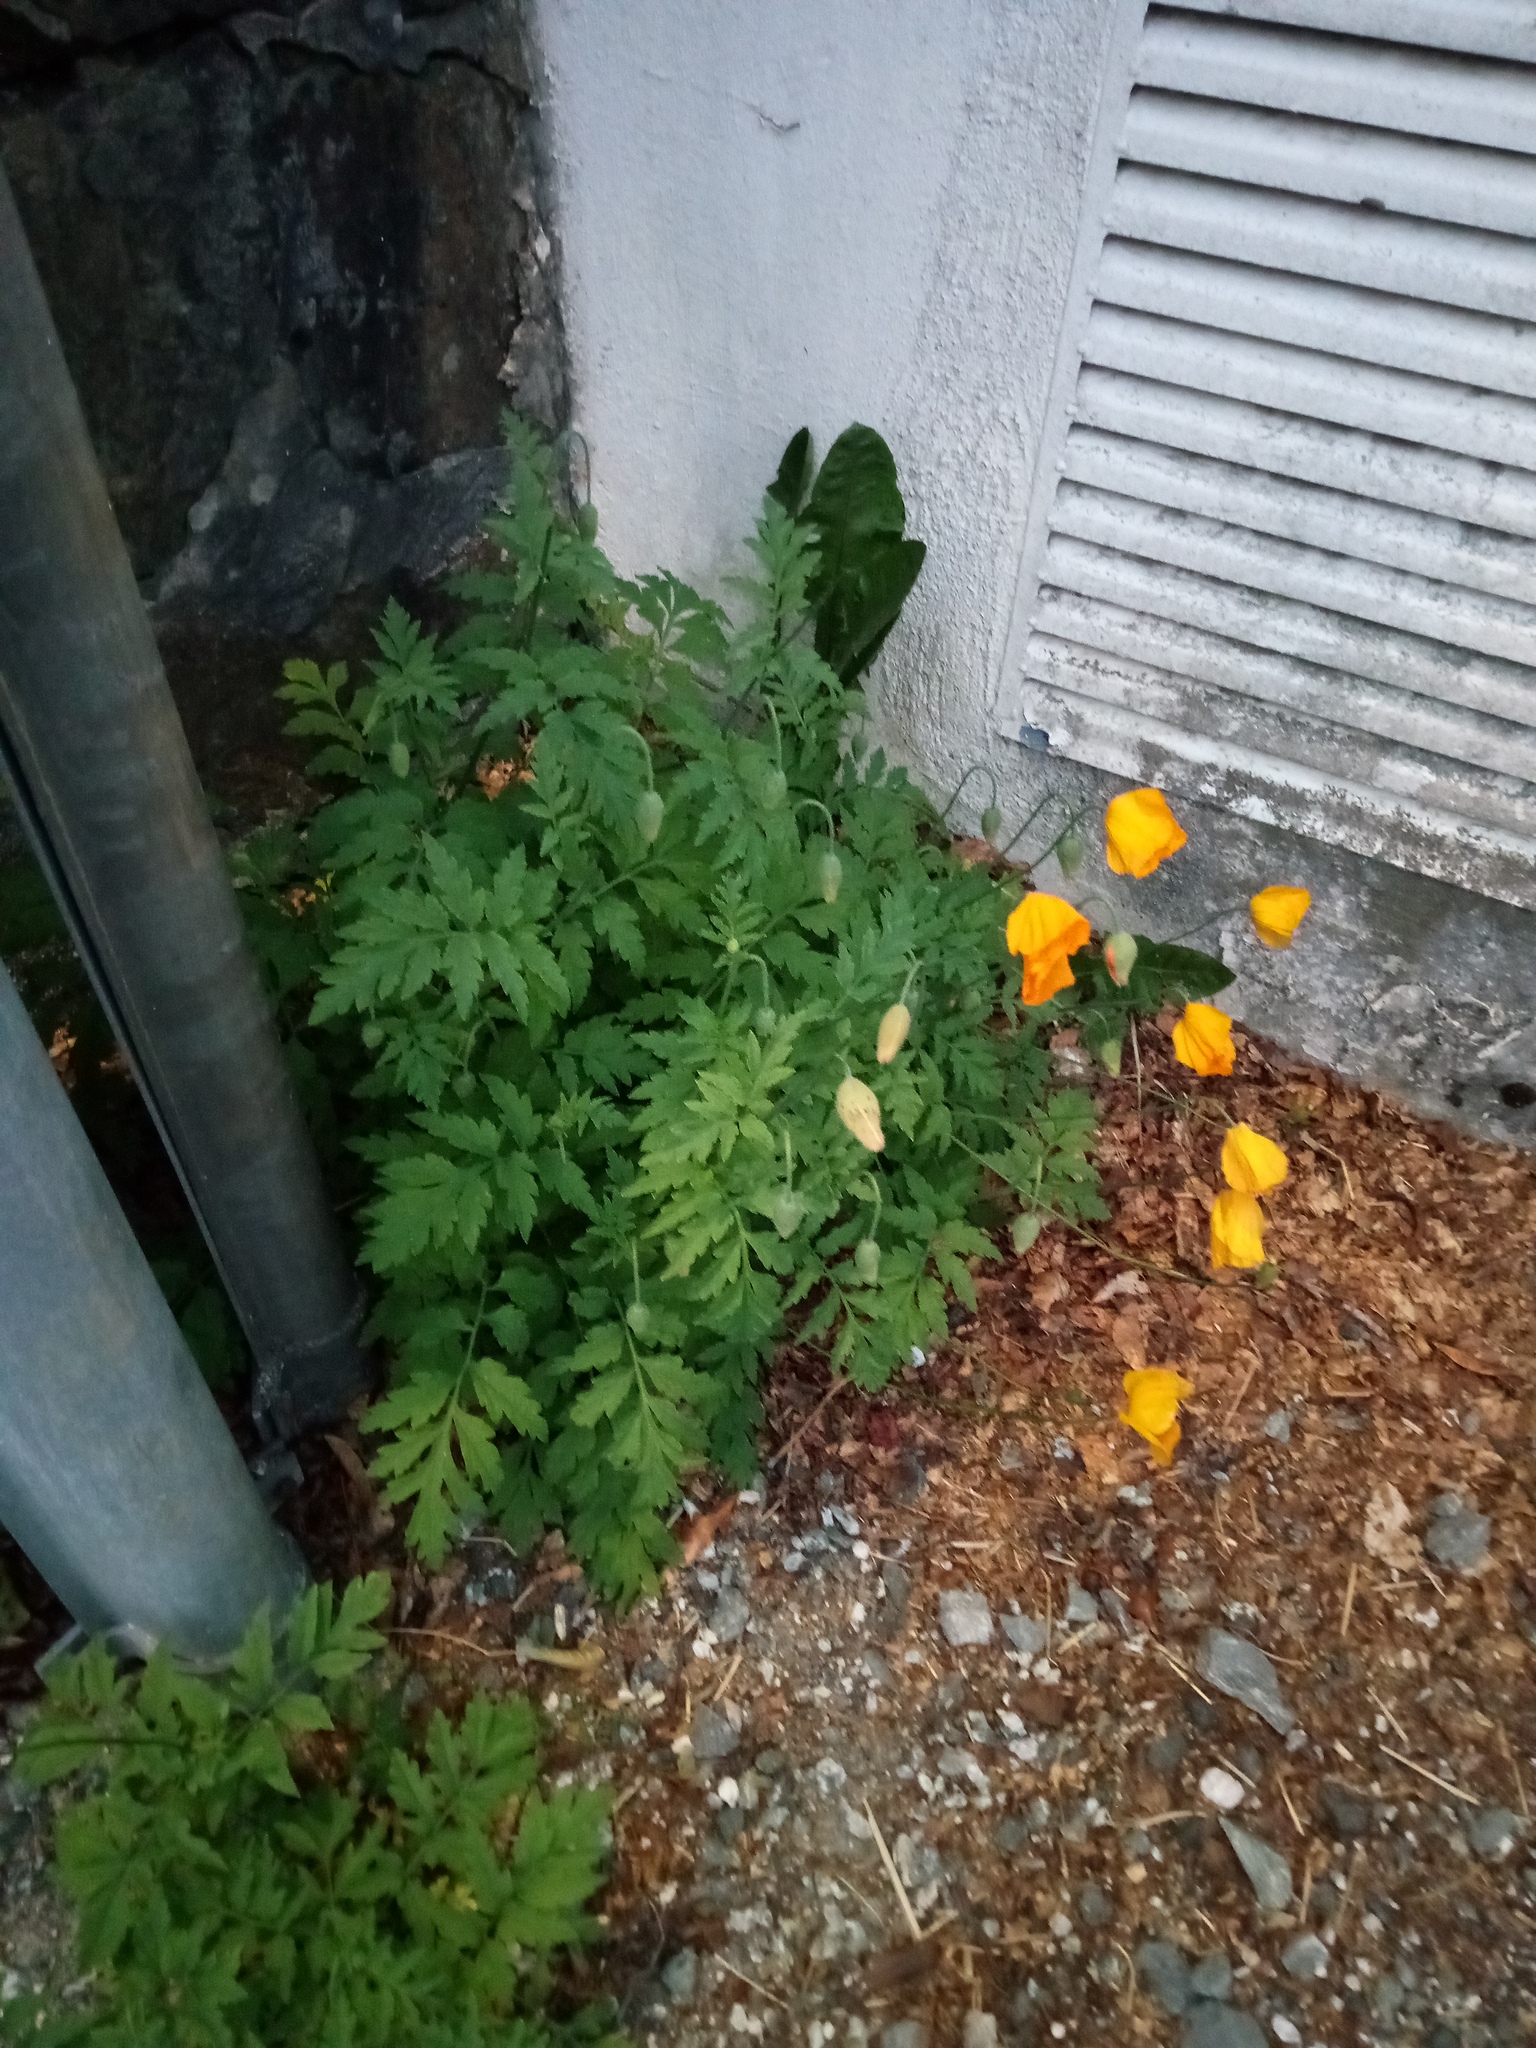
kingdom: Plantae
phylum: Tracheophyta
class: Magnoliopsida
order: Ranunculales
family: Papaveraceae
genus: Papaver
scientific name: Papaver cambricum
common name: Poppy
